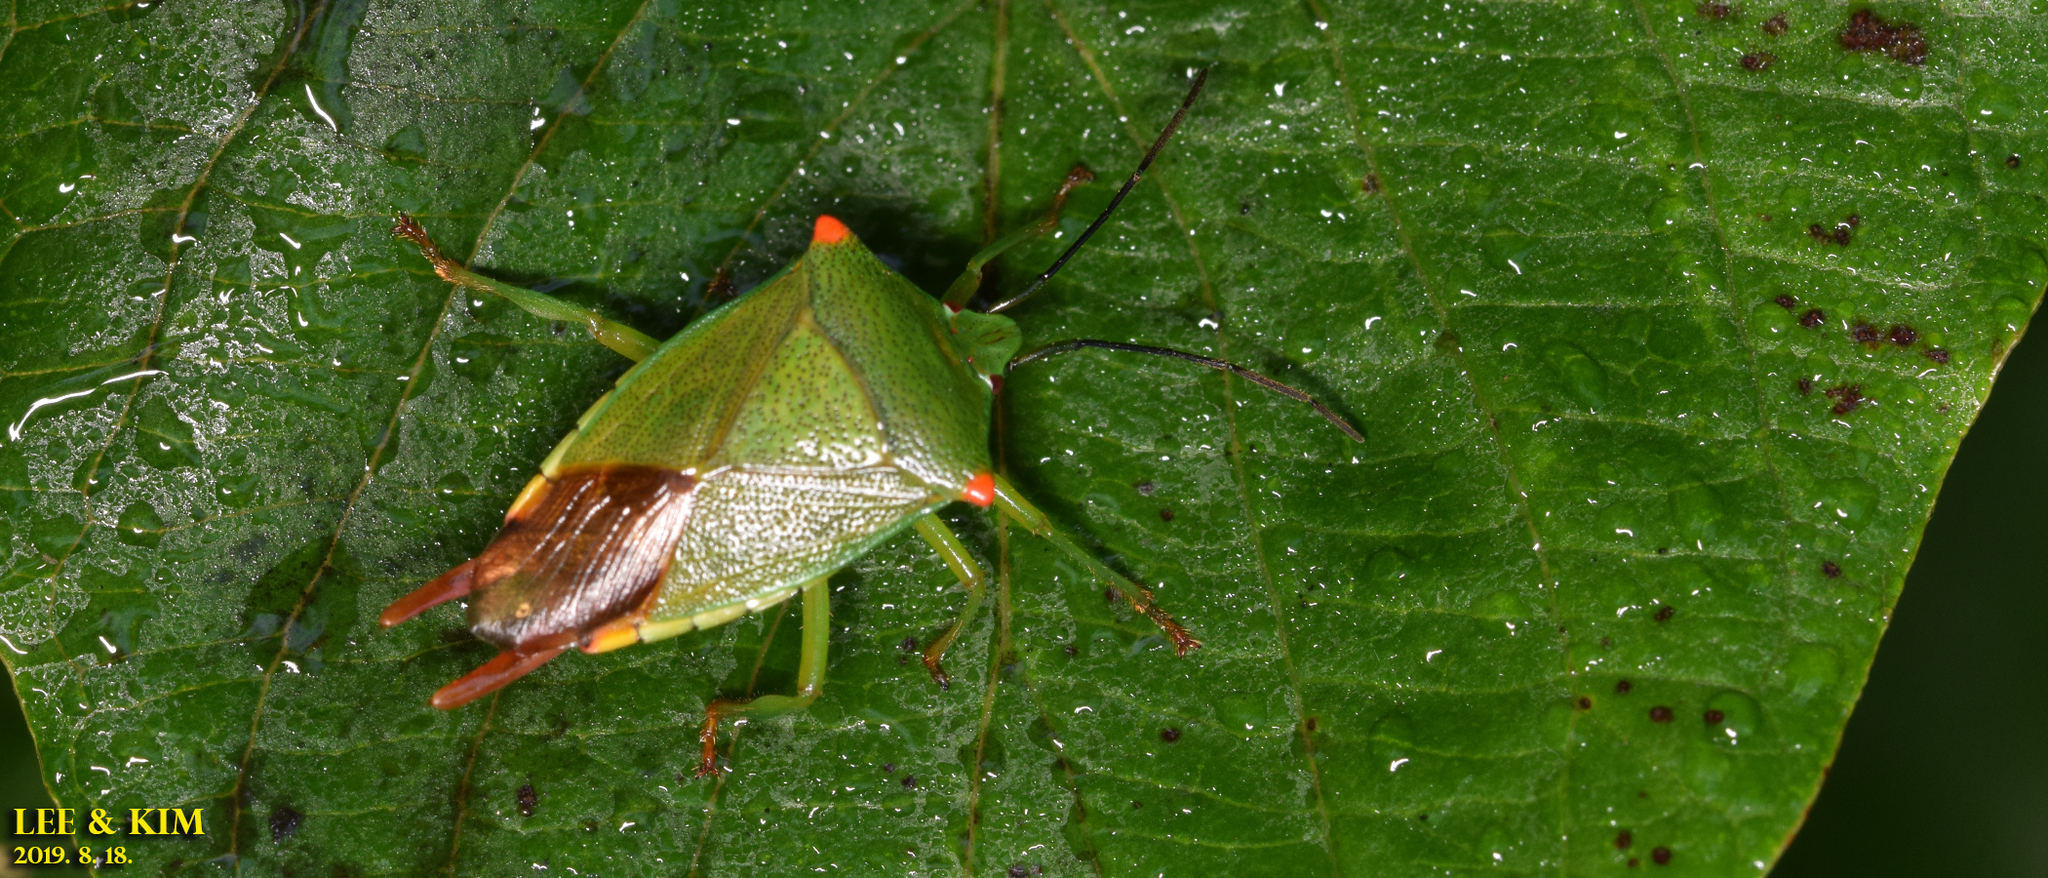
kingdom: Animalia
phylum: Arthropoda
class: Insecta
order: Hemiptera
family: Acanthosomatidae
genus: Acanthosoma
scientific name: Acanthosoma labiduroides
